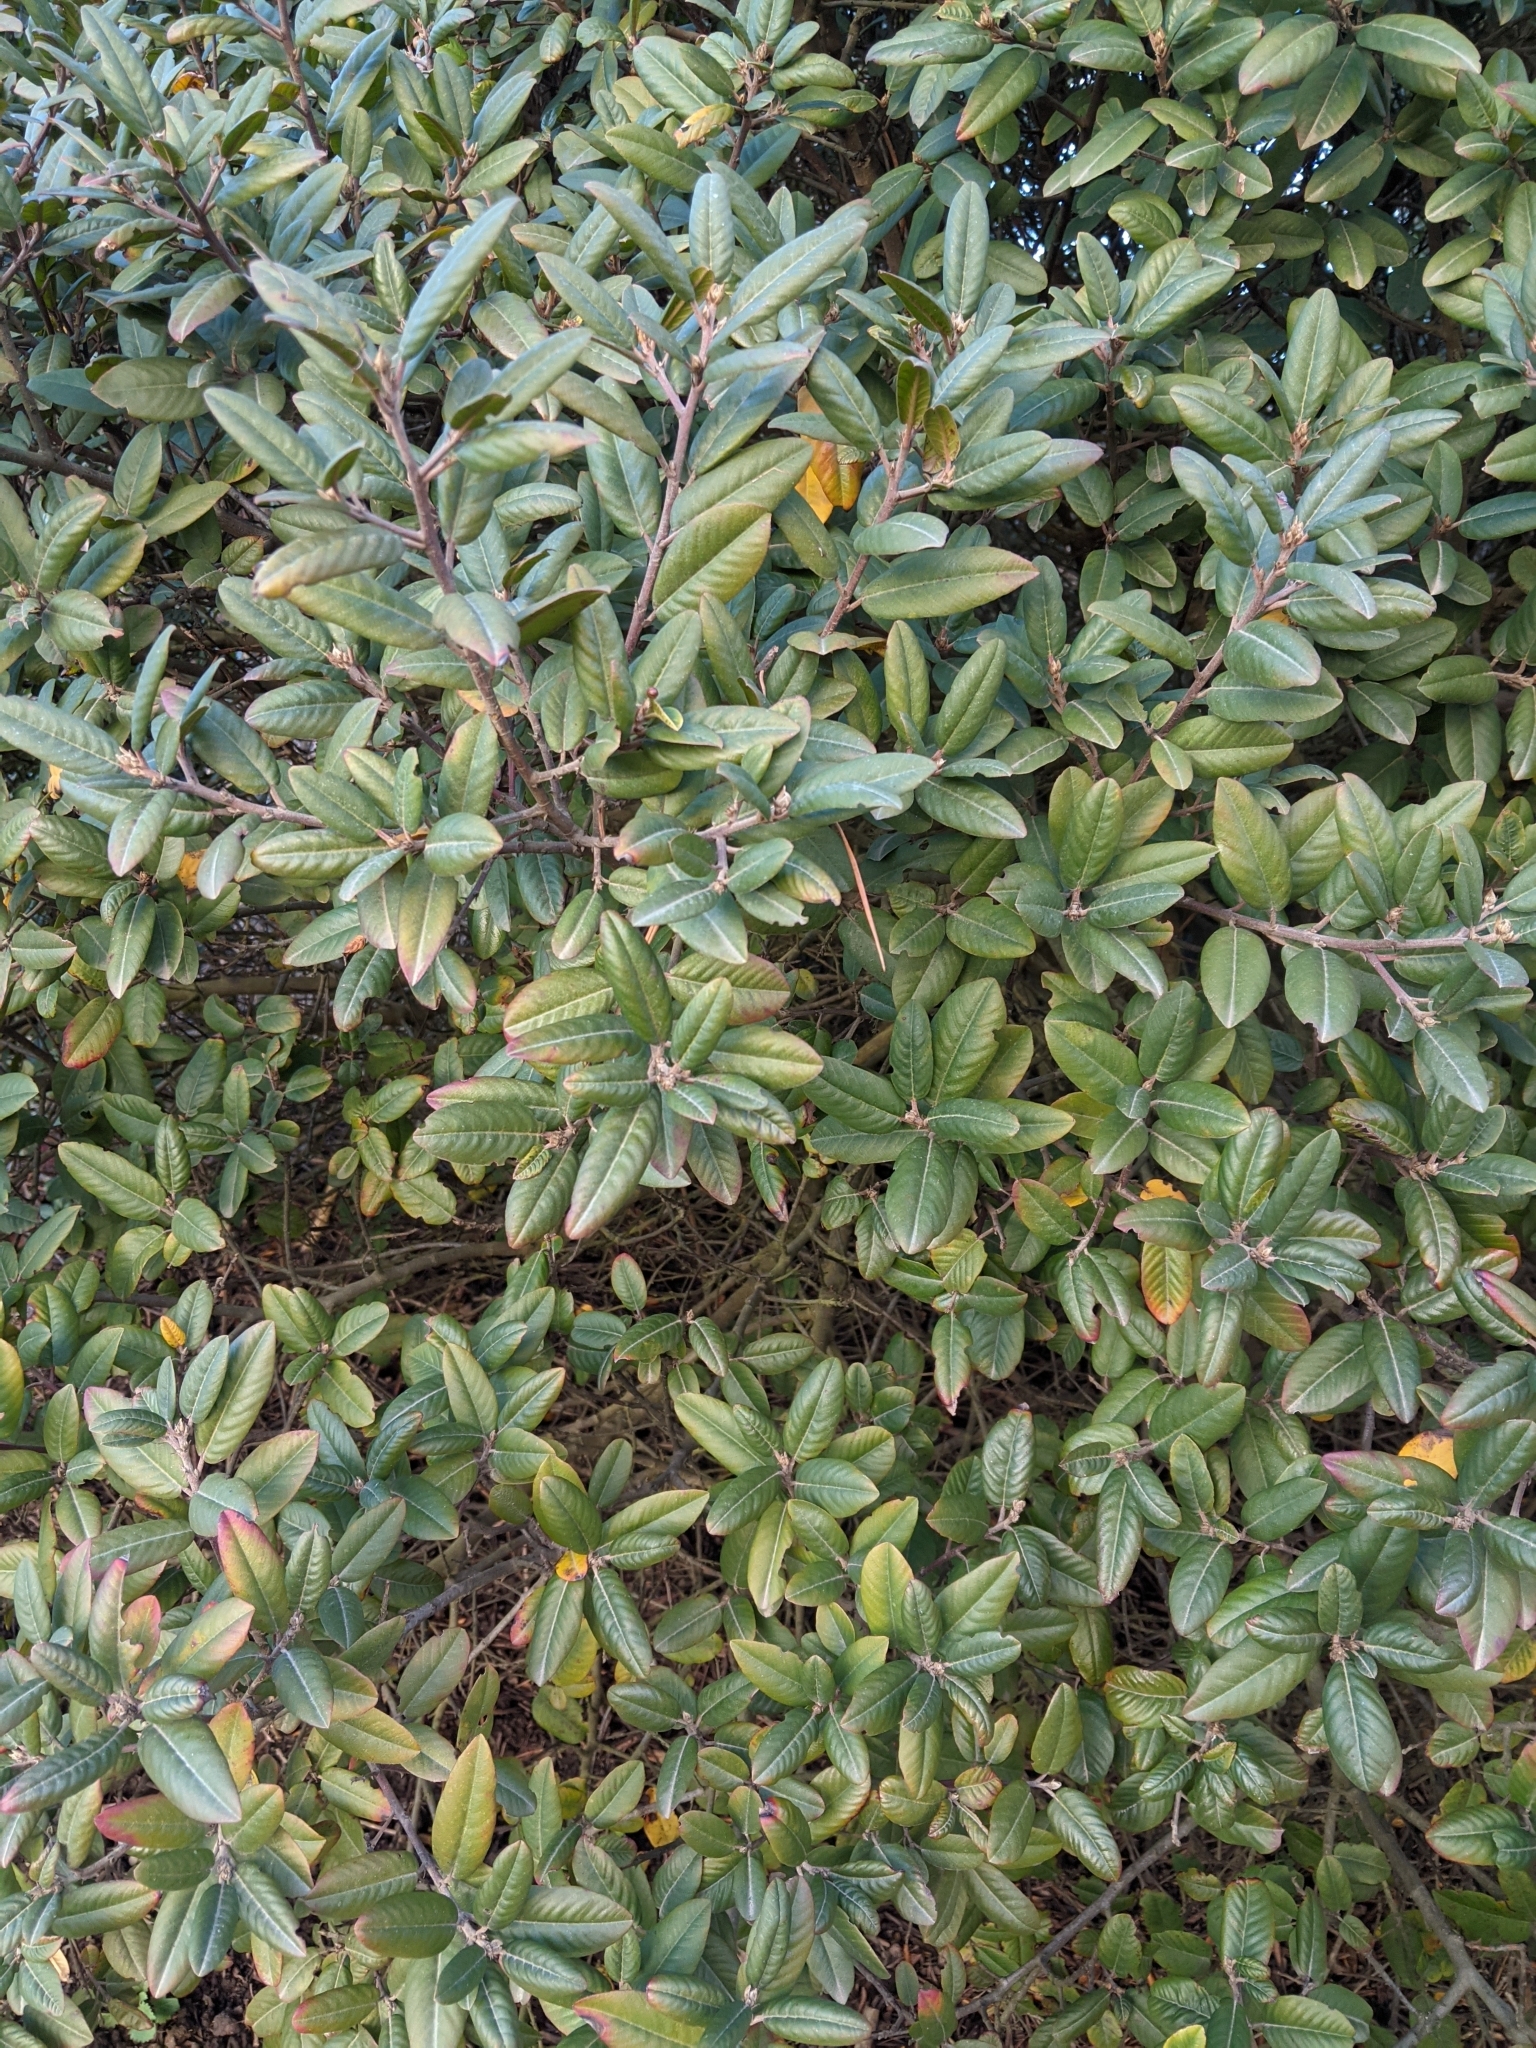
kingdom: Plantae
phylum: Tracheophyta
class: Magnoliopsida
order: Rosales
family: Rhamnaceae
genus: Frangula
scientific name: Frangula californica
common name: California buckthorn
